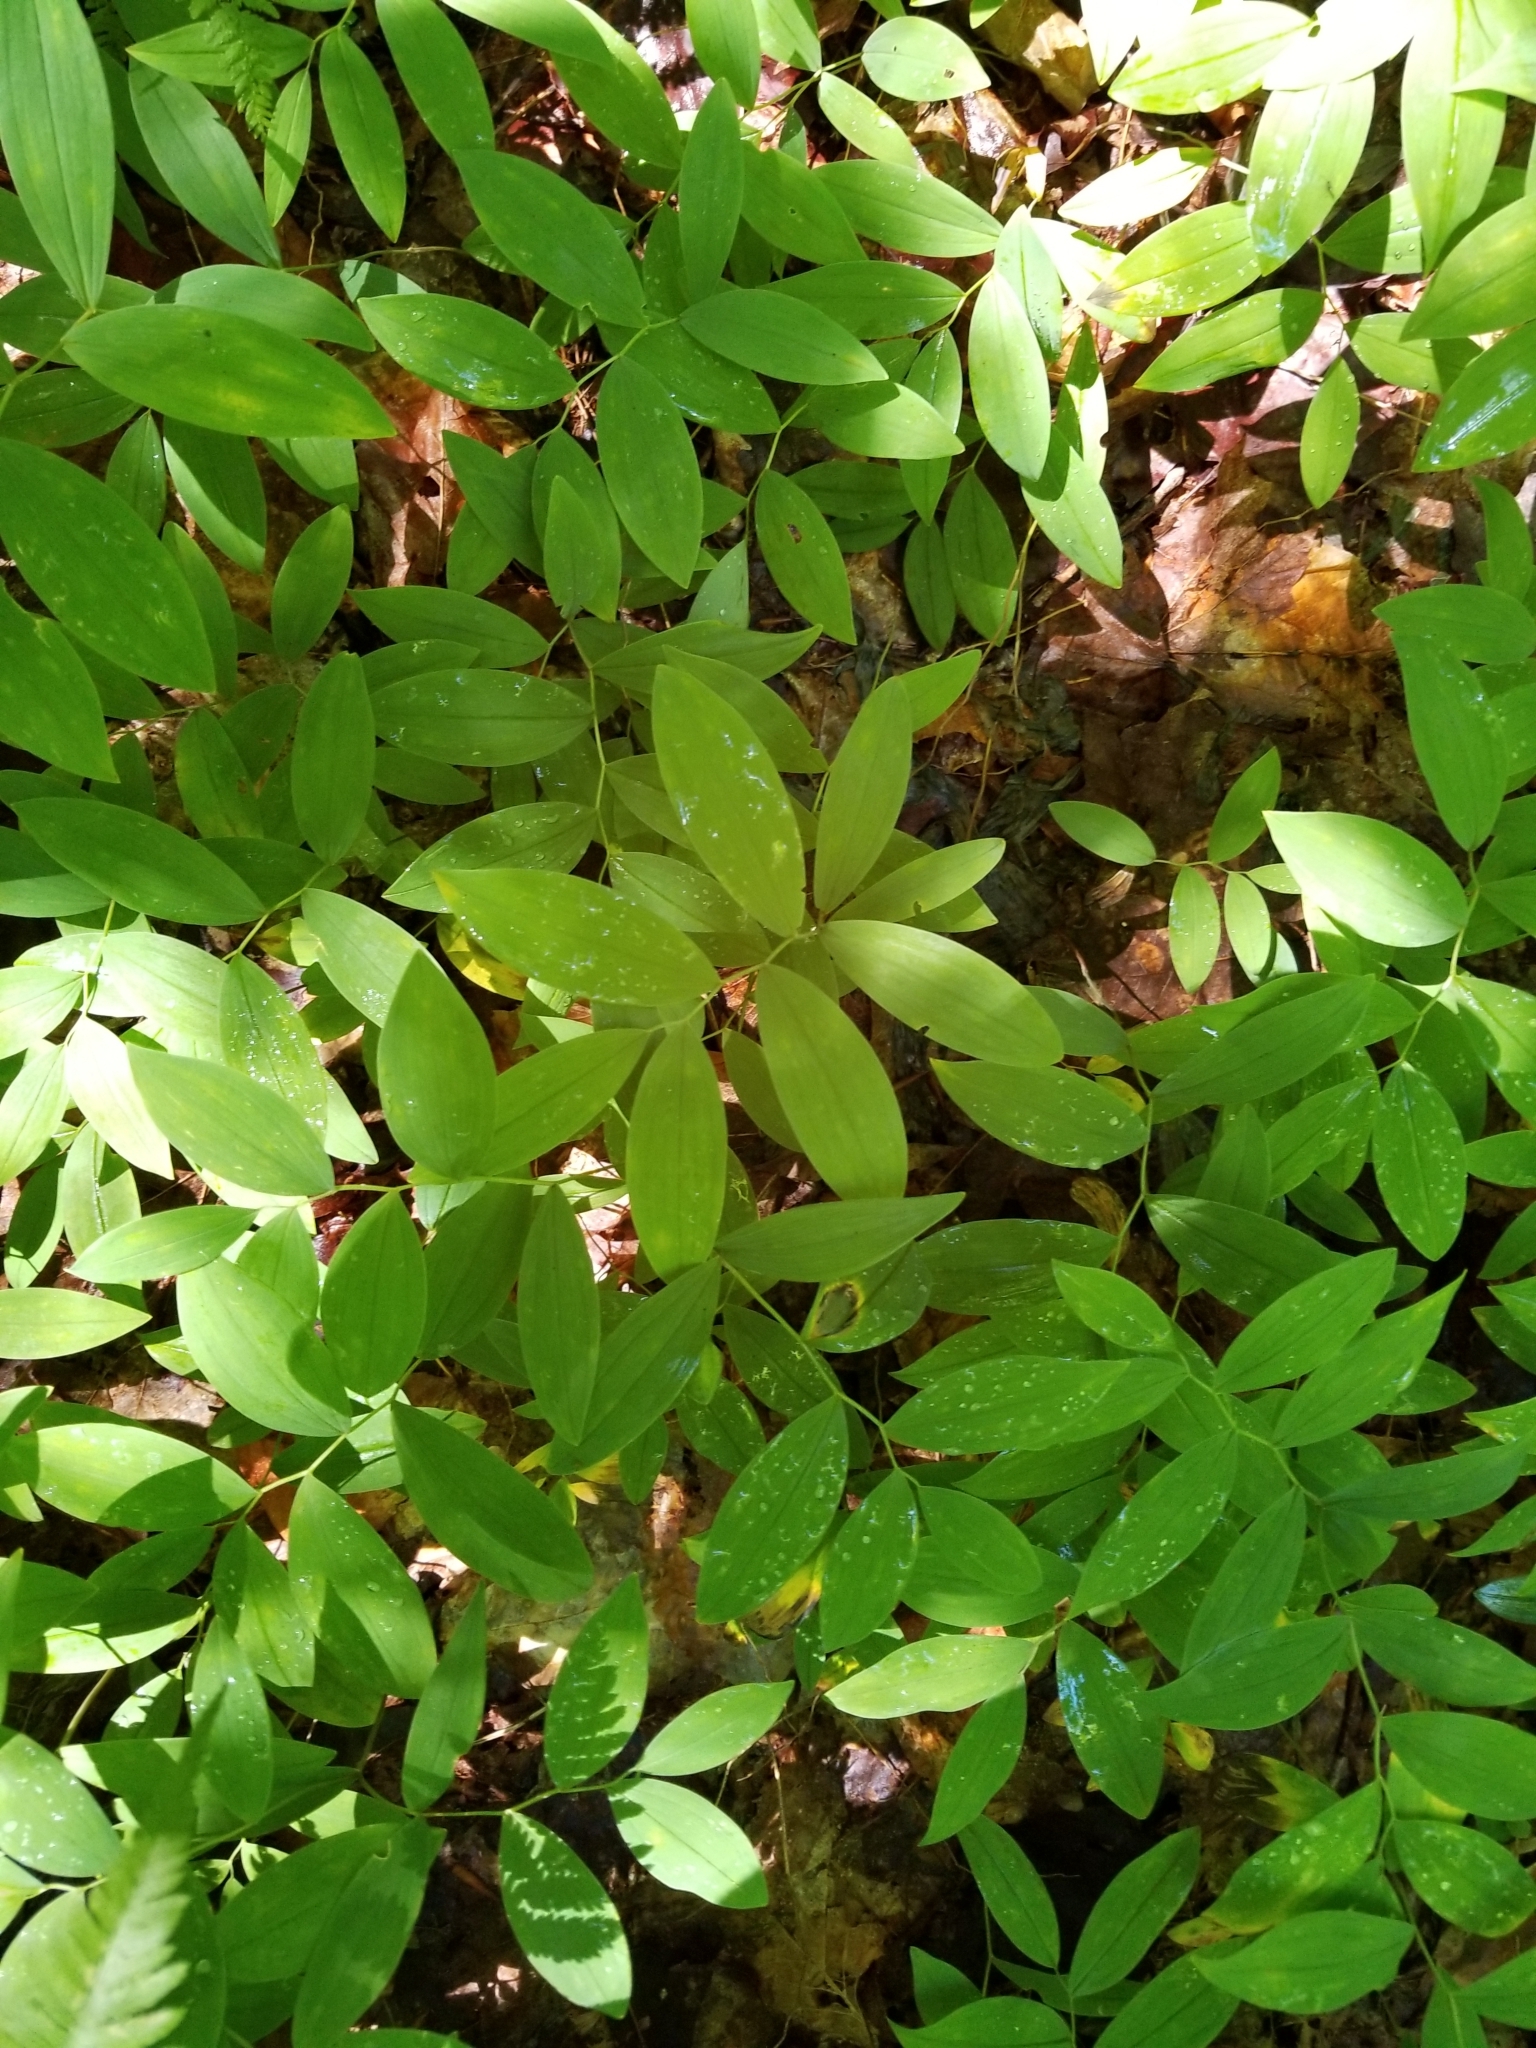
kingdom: Plantae
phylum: Tracheophyta
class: Liliopsida
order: Liliales
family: Colchicaceae
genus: Uvularia
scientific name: Uvularia sessilifolia
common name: Straw-lily
